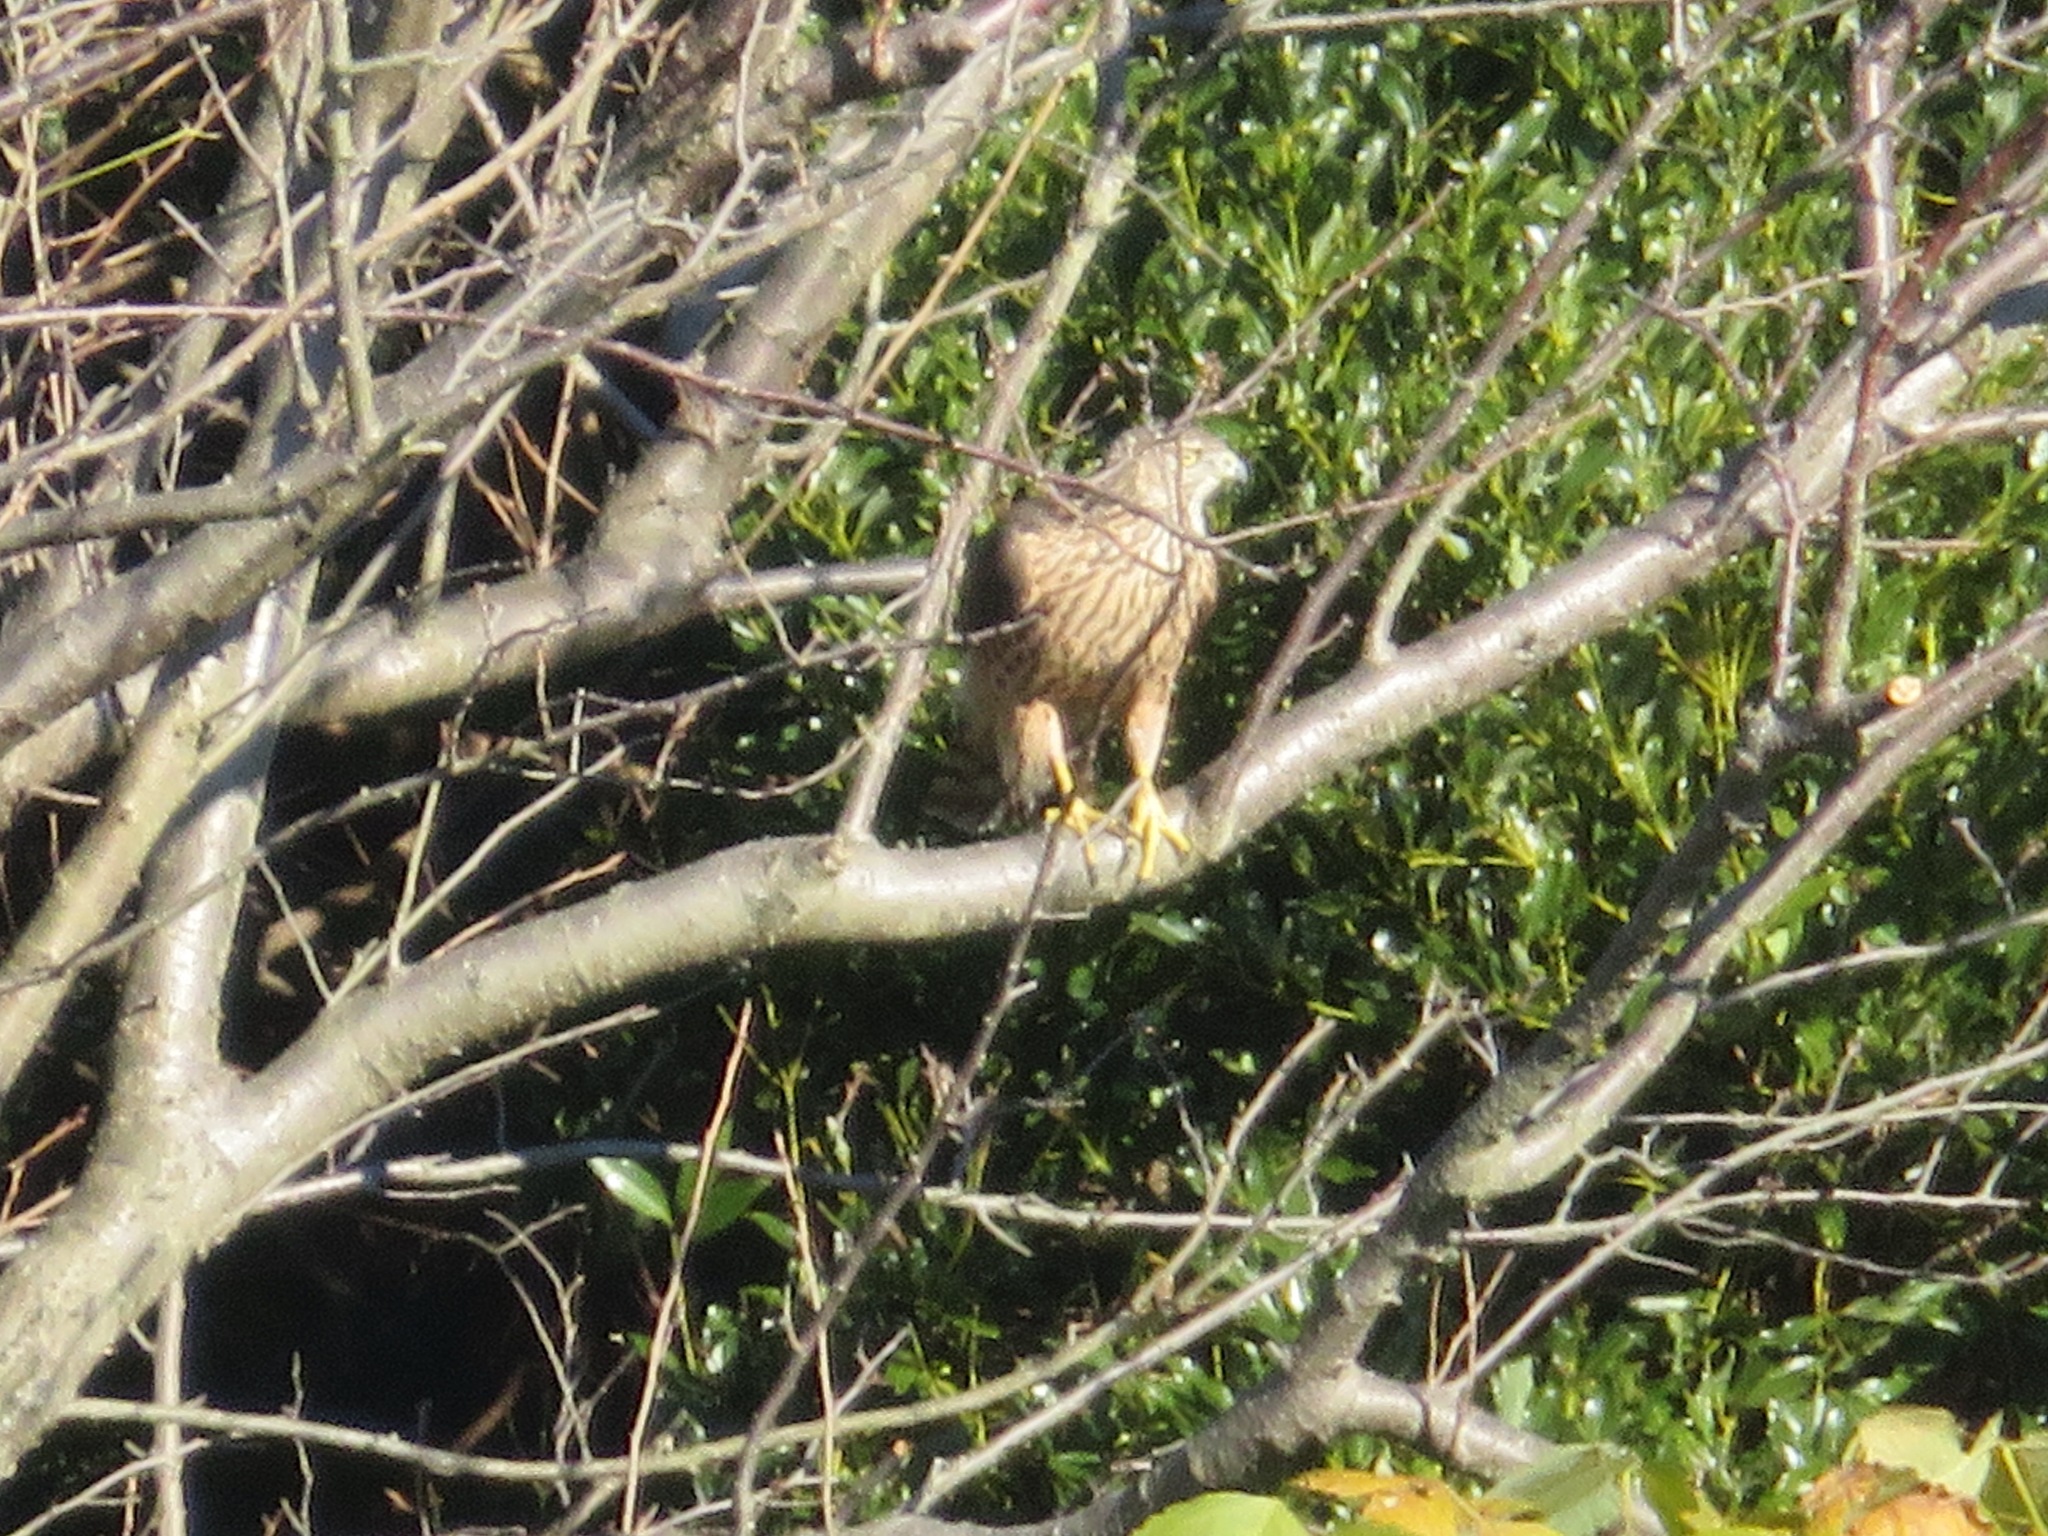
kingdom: Animalia
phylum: Chordata
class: Aves
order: Accipitriformes
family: Accipitridae
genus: Accipiter
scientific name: Accipiter gentilis
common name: Northern goshawk
